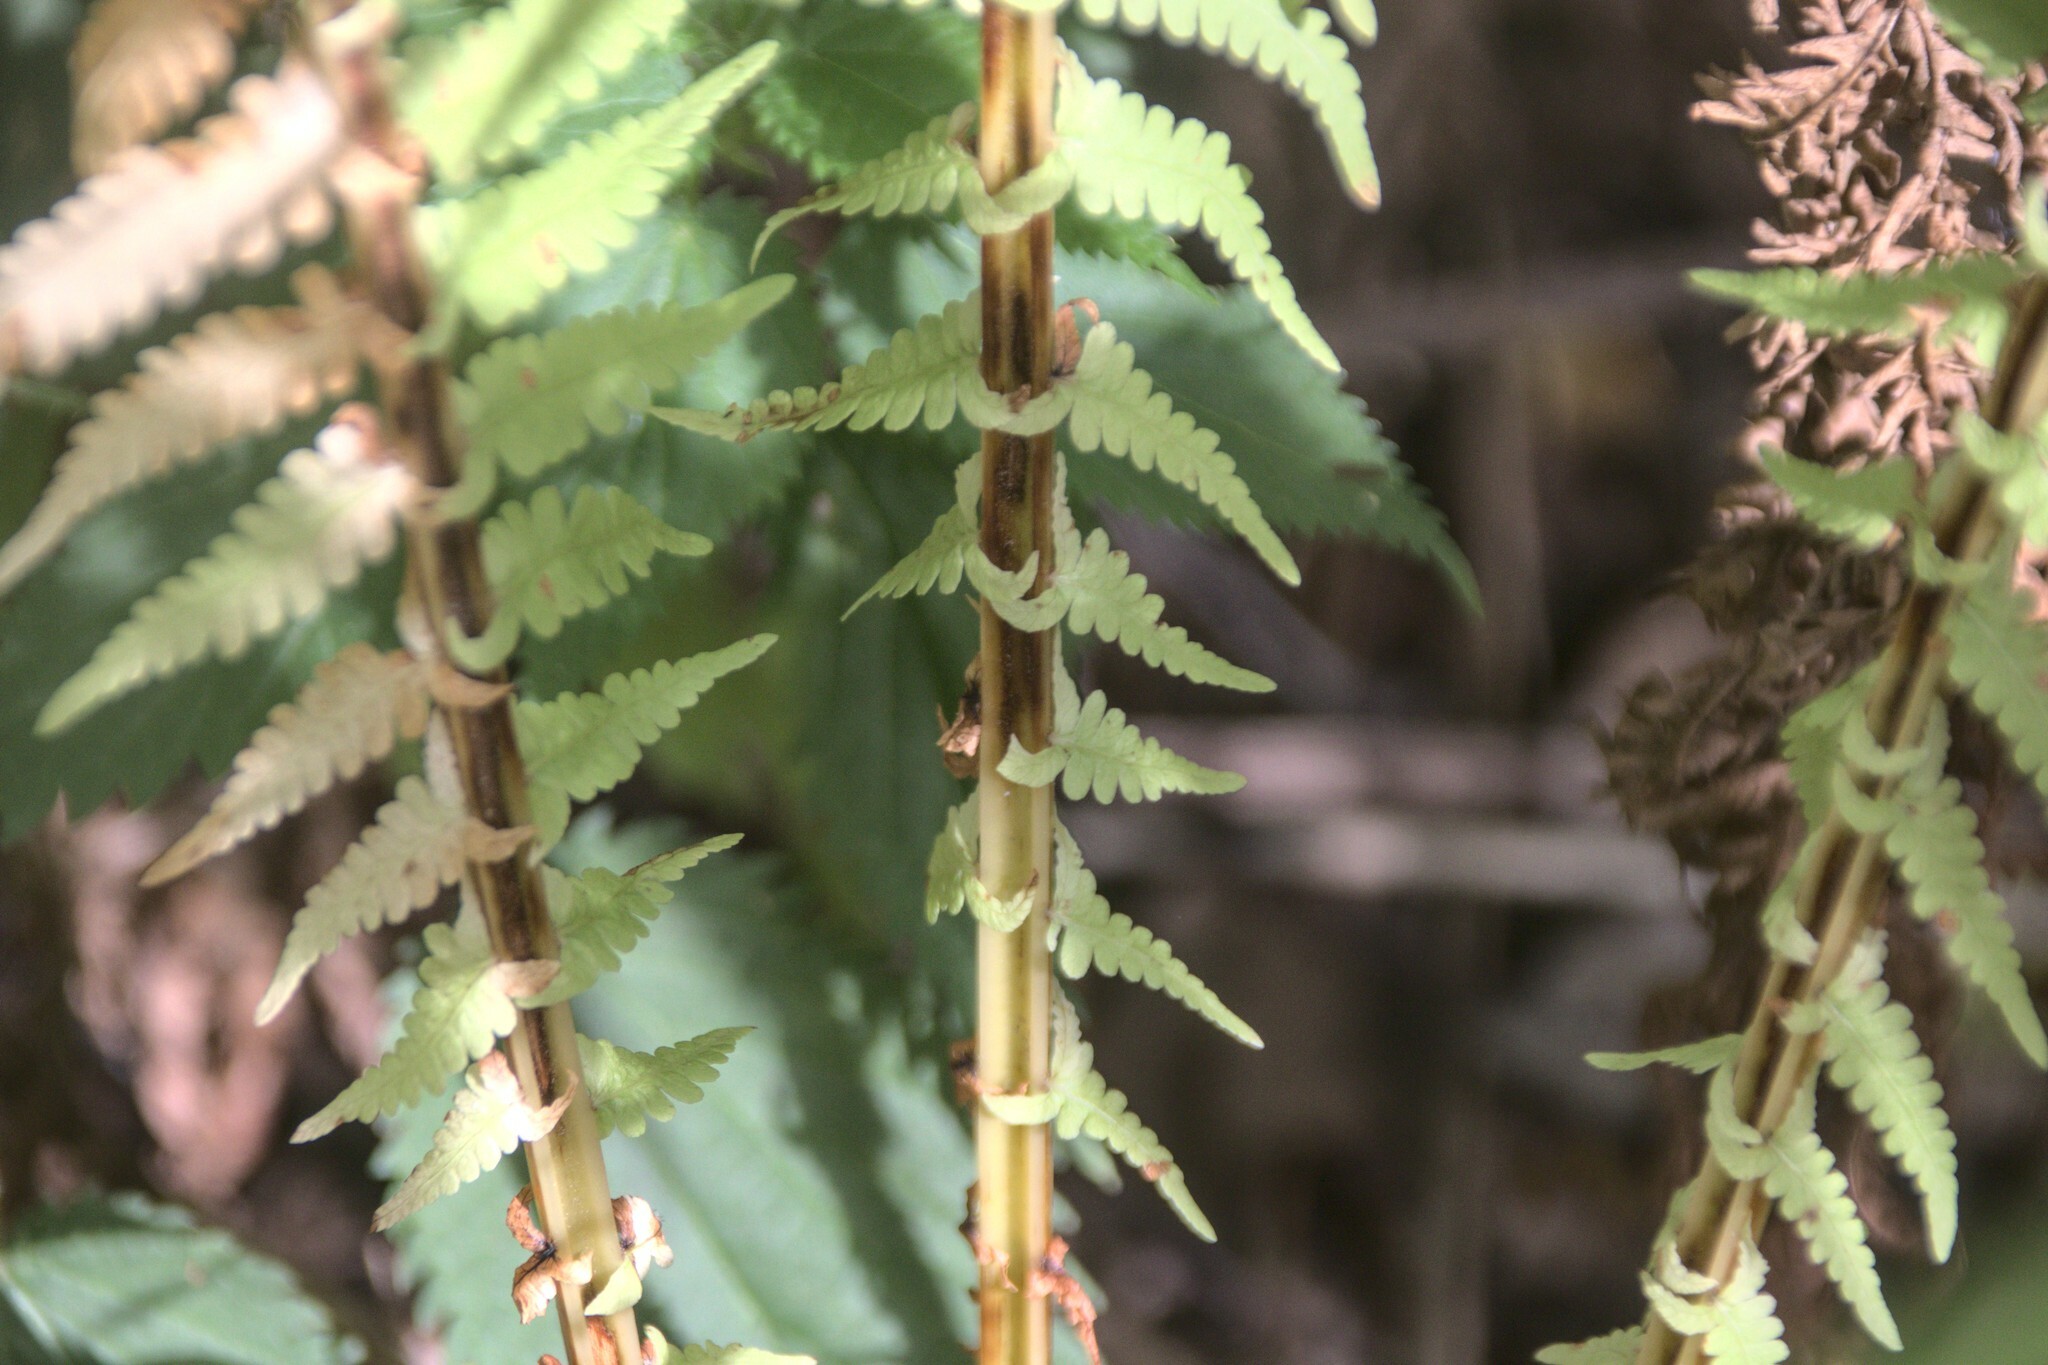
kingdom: Plantae
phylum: Tracheophyta
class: Polypodiopsida
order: Polypodiales
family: Onocleaceae
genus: Matteuccia
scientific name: Matteuccia struthiopteris
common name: Ostrich fern
